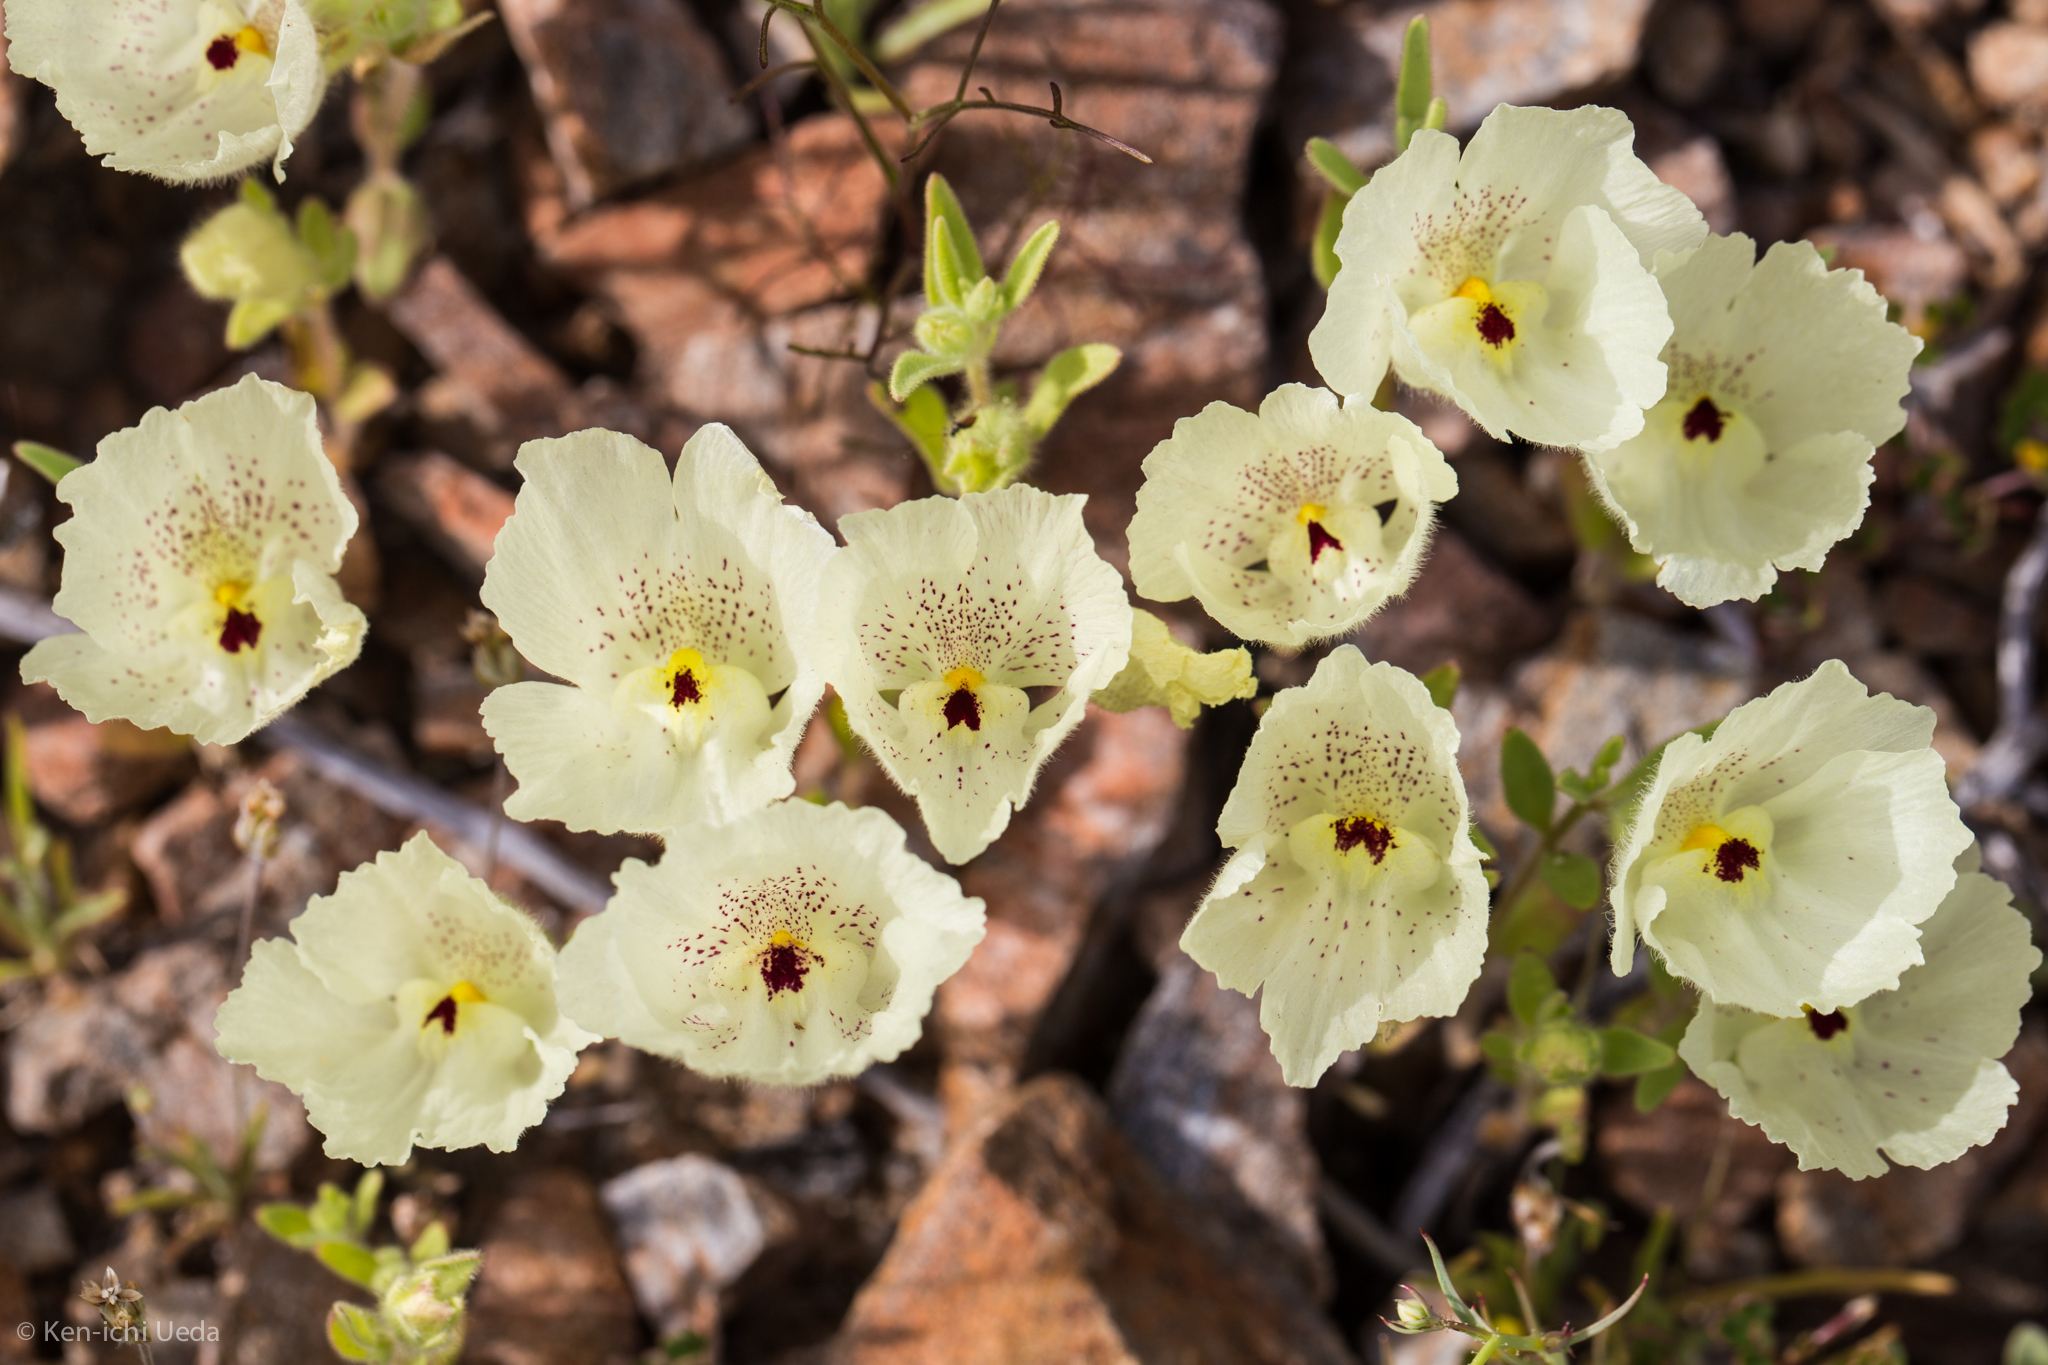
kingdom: Plantae
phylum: Tracheophyta
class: Magnoliopsida
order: Lamiales
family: Plantaginaceae
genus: Mohavea
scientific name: Mohavea confertiflora
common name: Ghost flower
